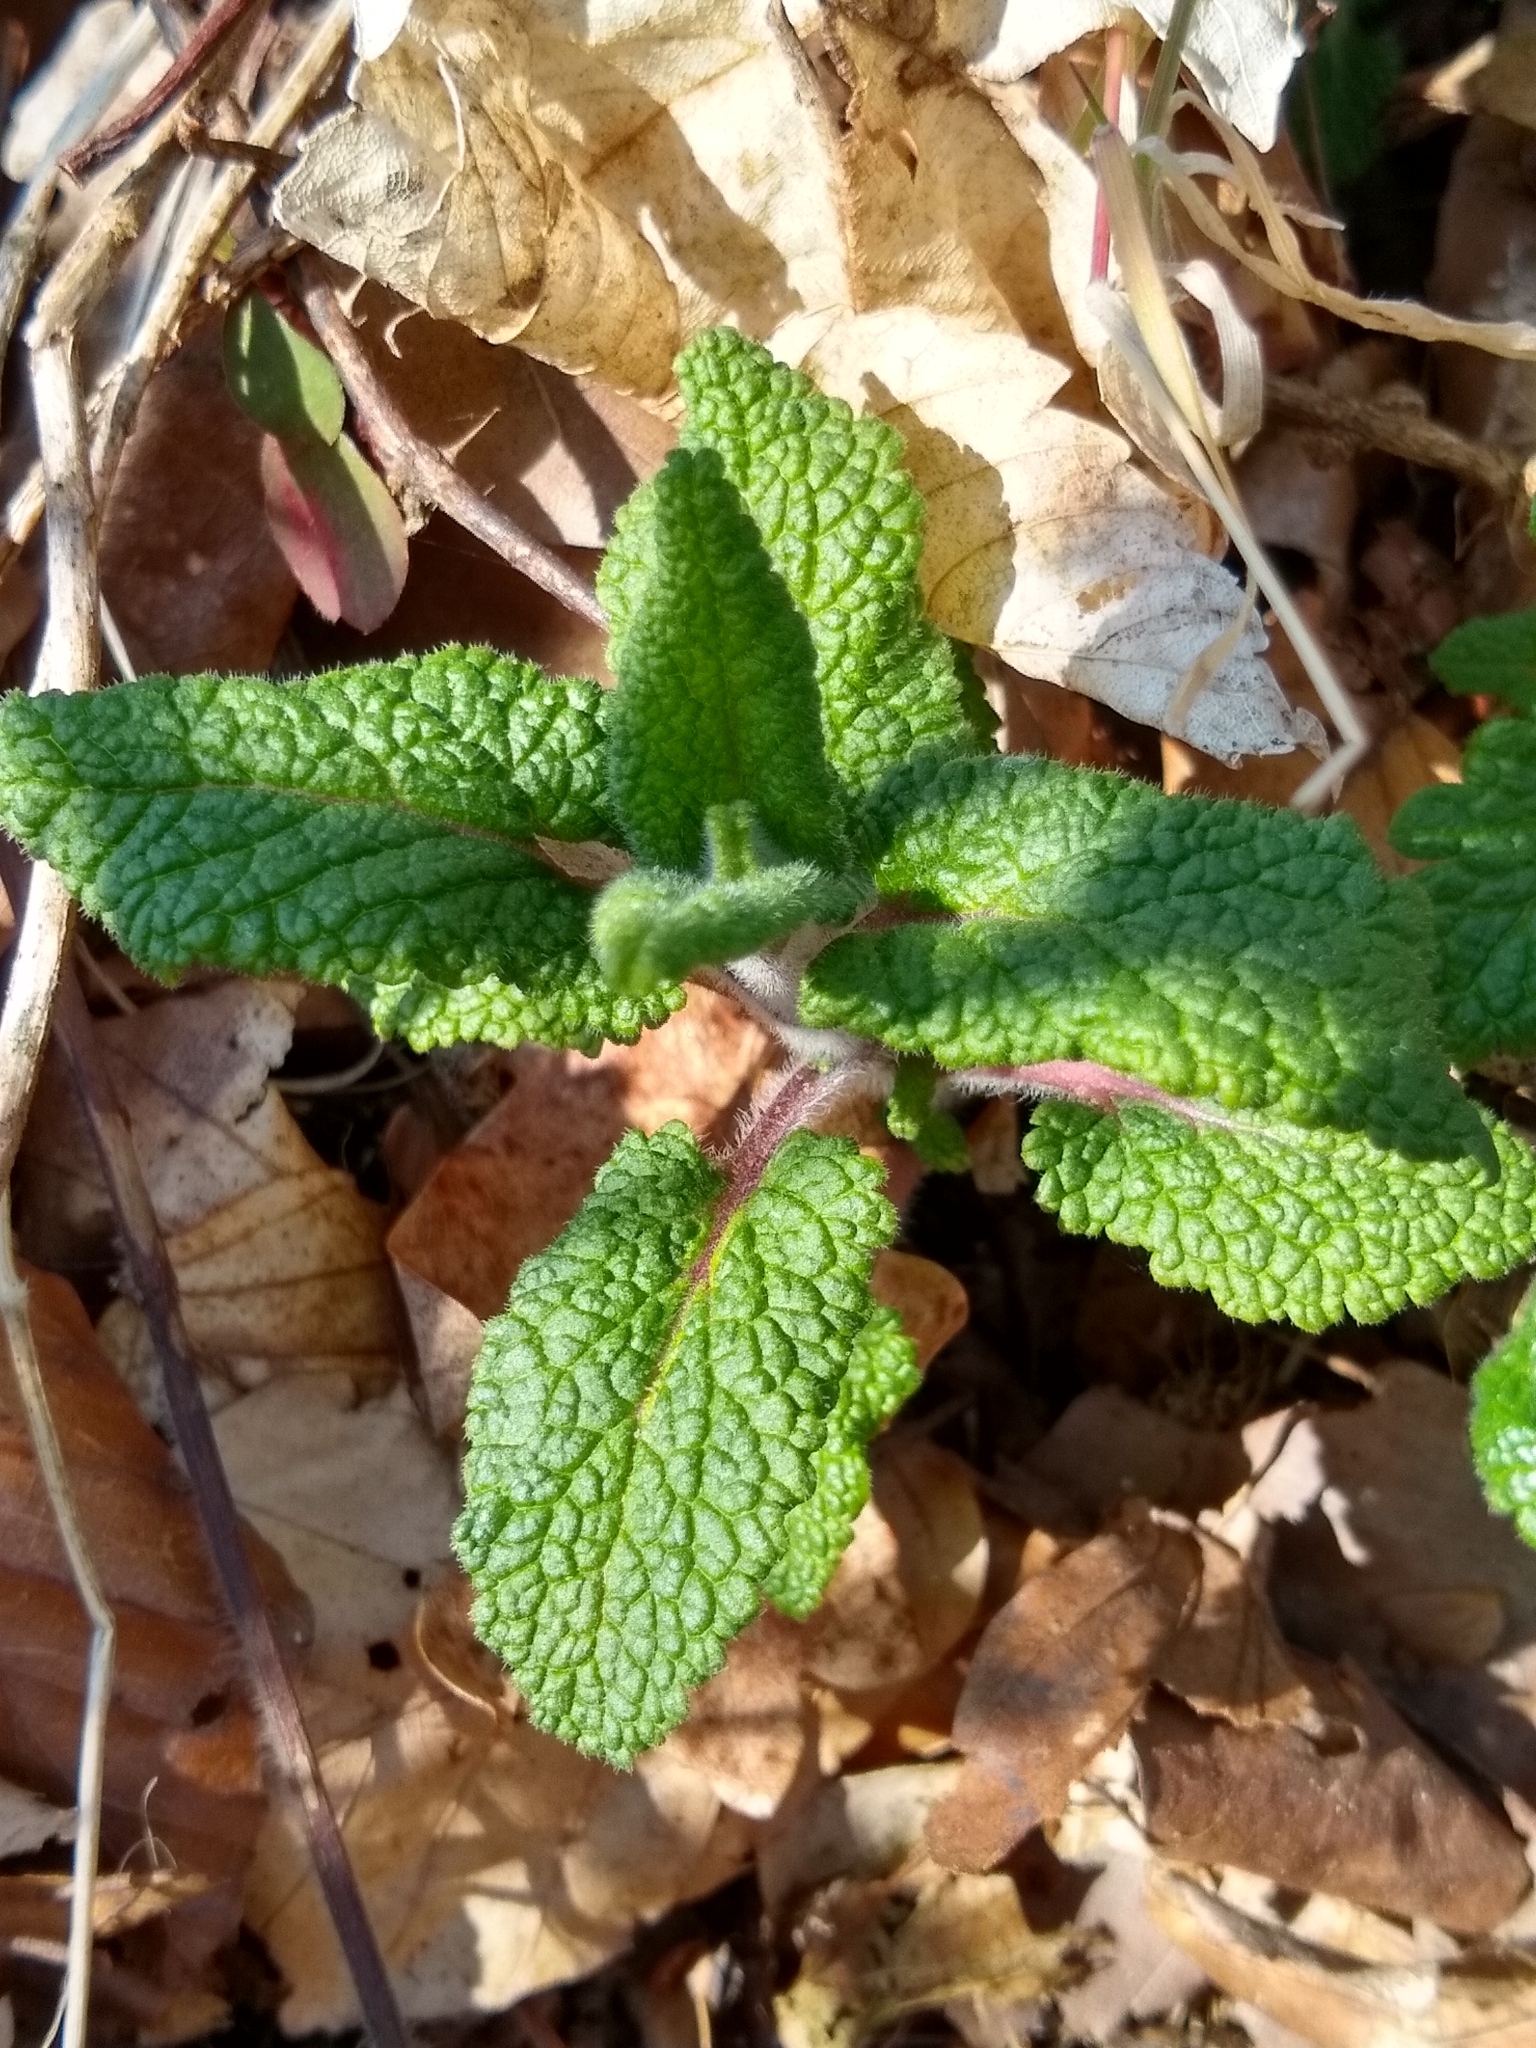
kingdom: Plantae
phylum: Tracheophyta
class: Magnoliopsida
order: Lamiales
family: Lamiaceae
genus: Teucrium
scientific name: Teucrium scorodonia
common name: Woodland germander
